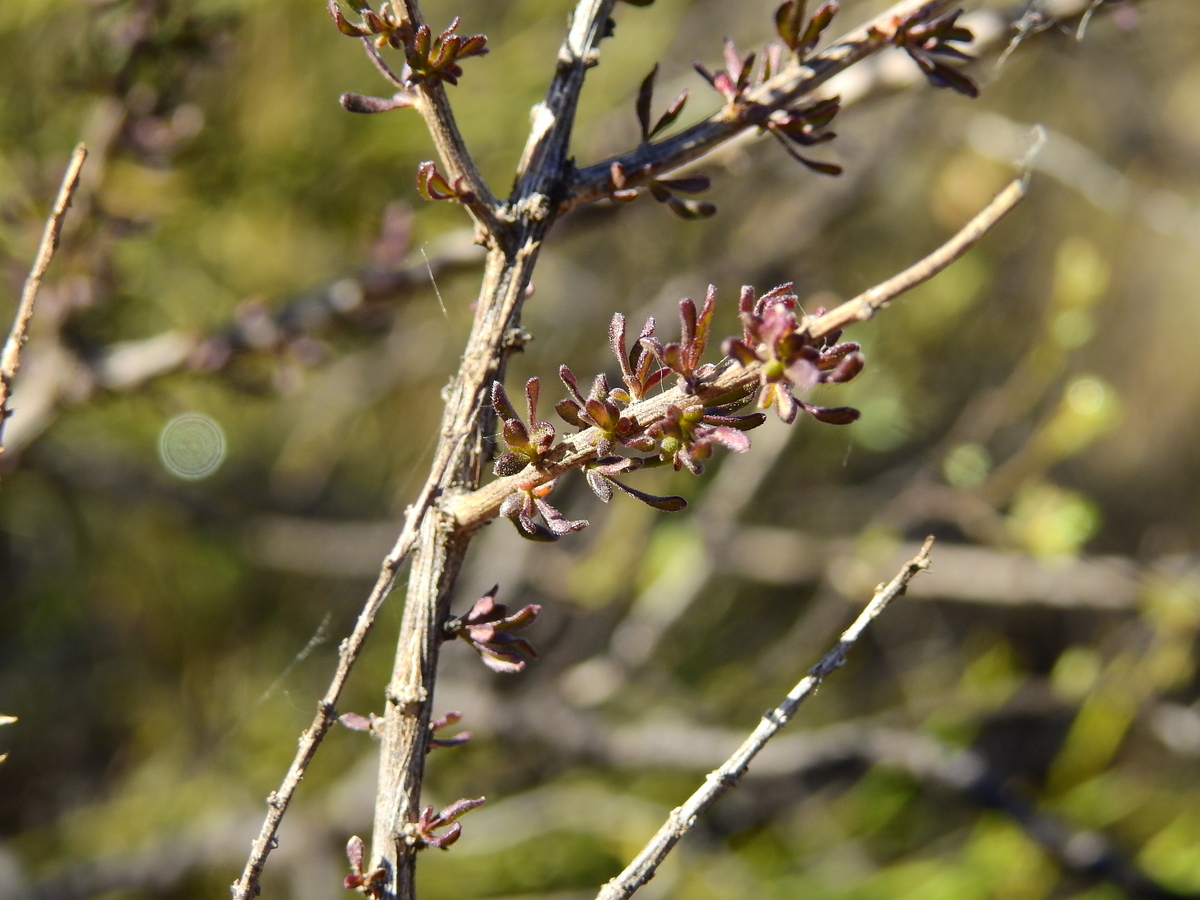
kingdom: Plantae
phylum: Tracheophyta
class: Magnoliopsida
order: Lamiales
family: Verbenaceae
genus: Mulguraea
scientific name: Mulguraea aspera
